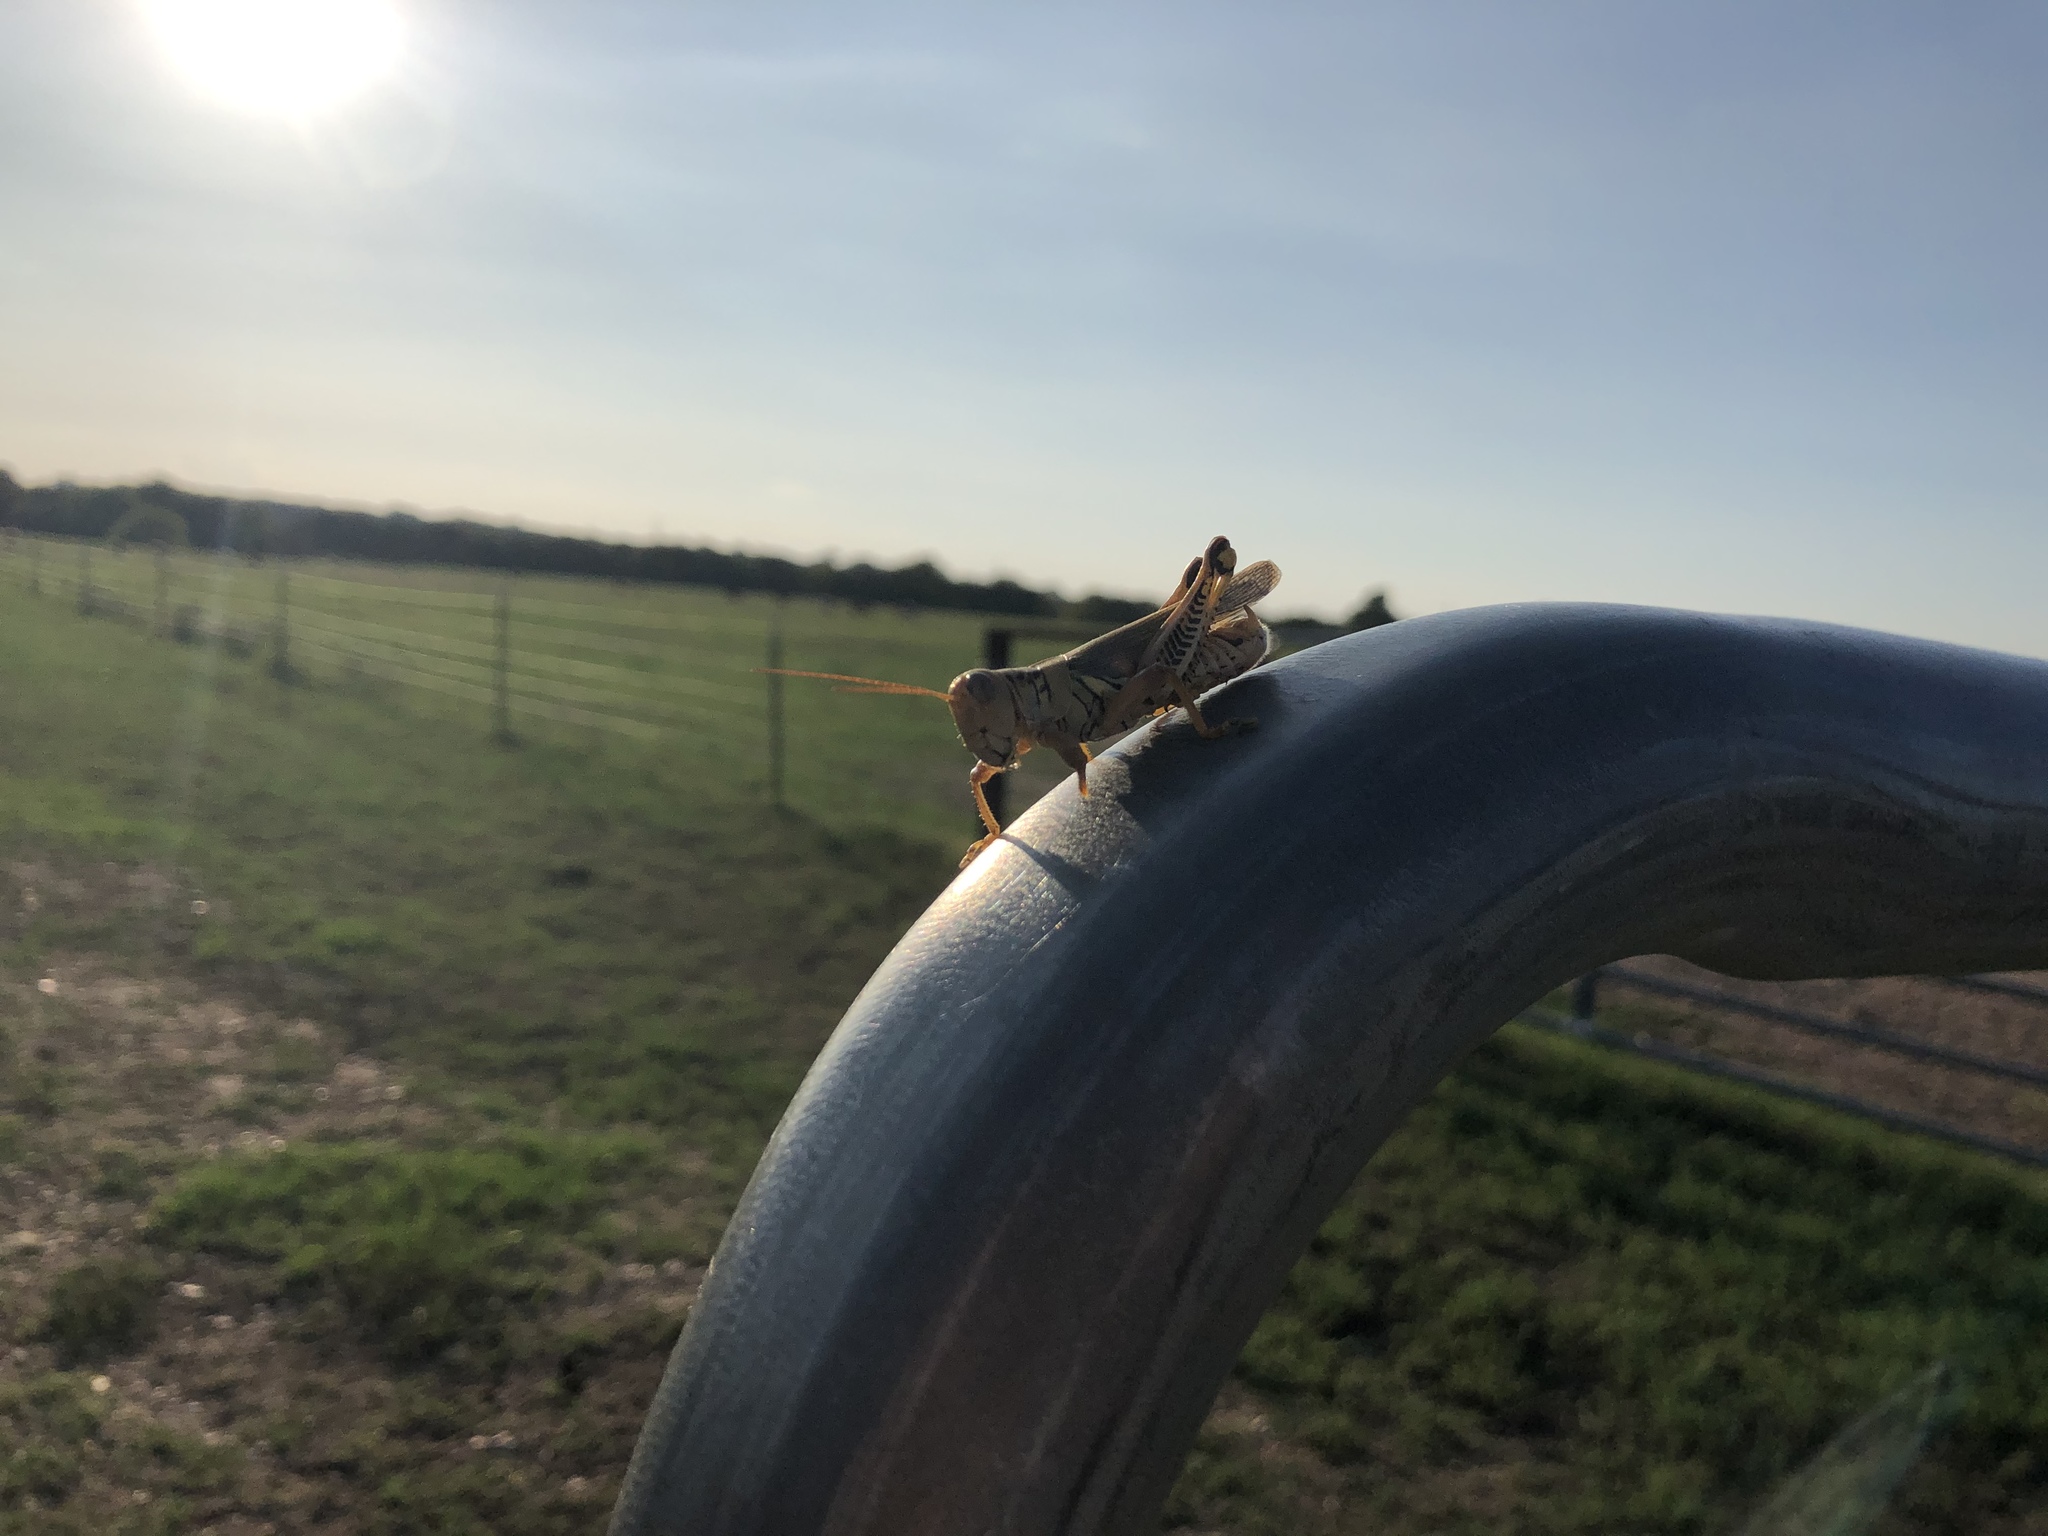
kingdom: Animalia
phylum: Arthropoda
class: Insecta
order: Orthoptera
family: Acrididae
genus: Melanoplus
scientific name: Melanoplus differentialis
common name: Differential grasshopper
